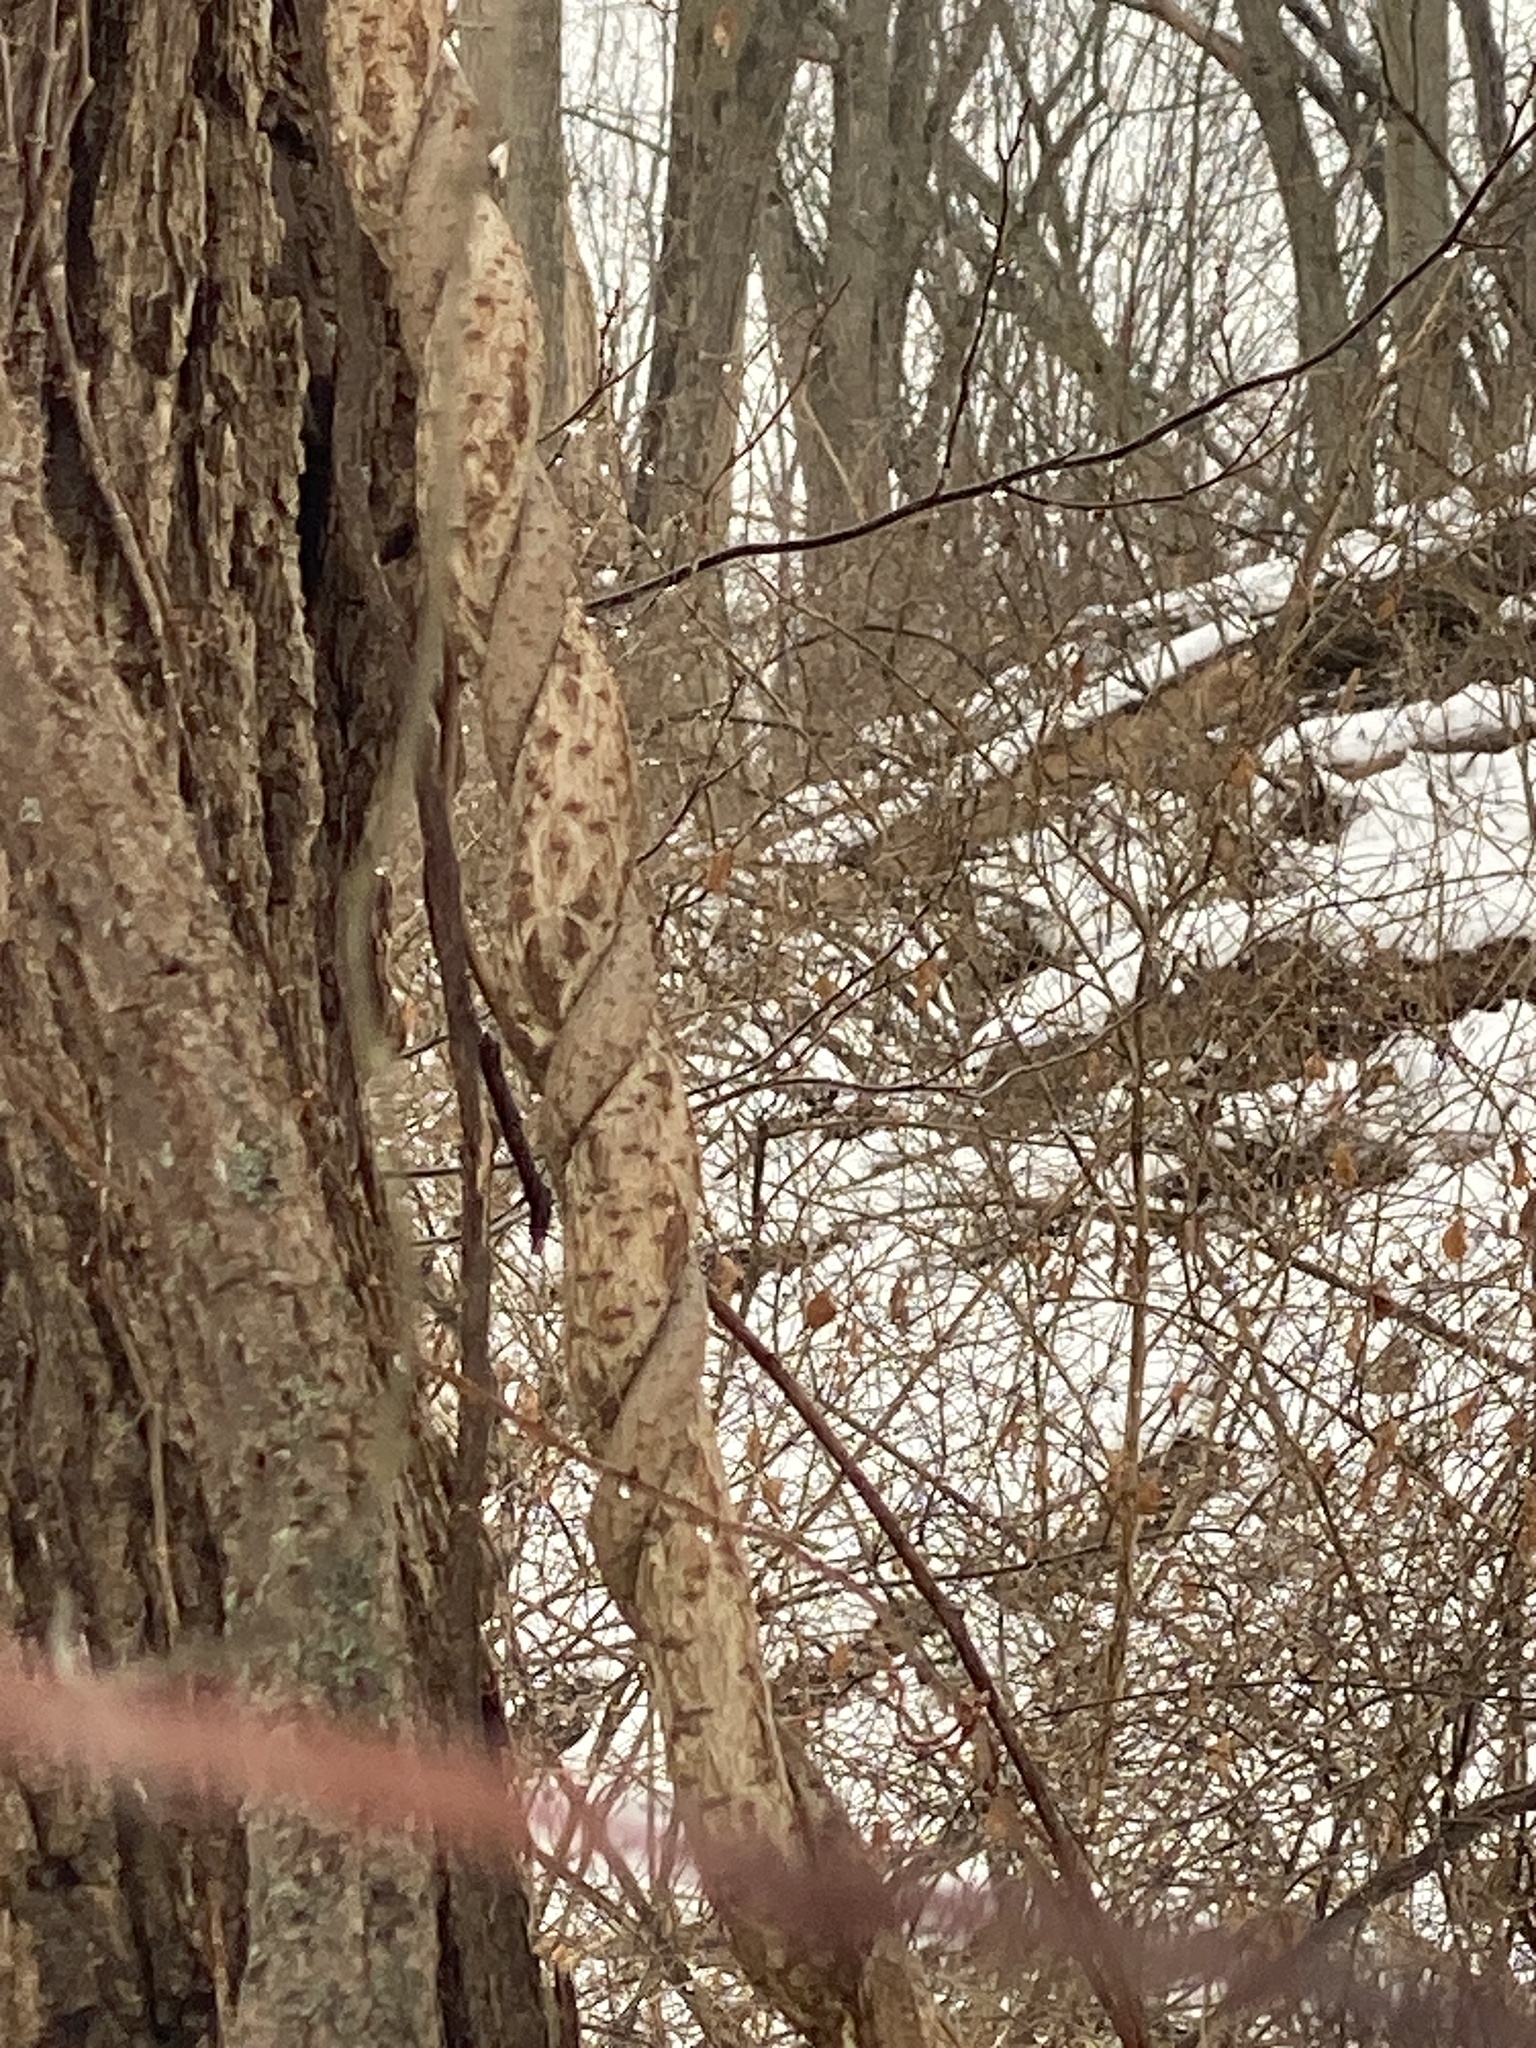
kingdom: Plantae
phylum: Tracheophyta
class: Magnoliopsida
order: Celastrales
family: Celastraceae
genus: Celastrus
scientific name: Celastrus orbiculatus
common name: Oriental bittersweet
